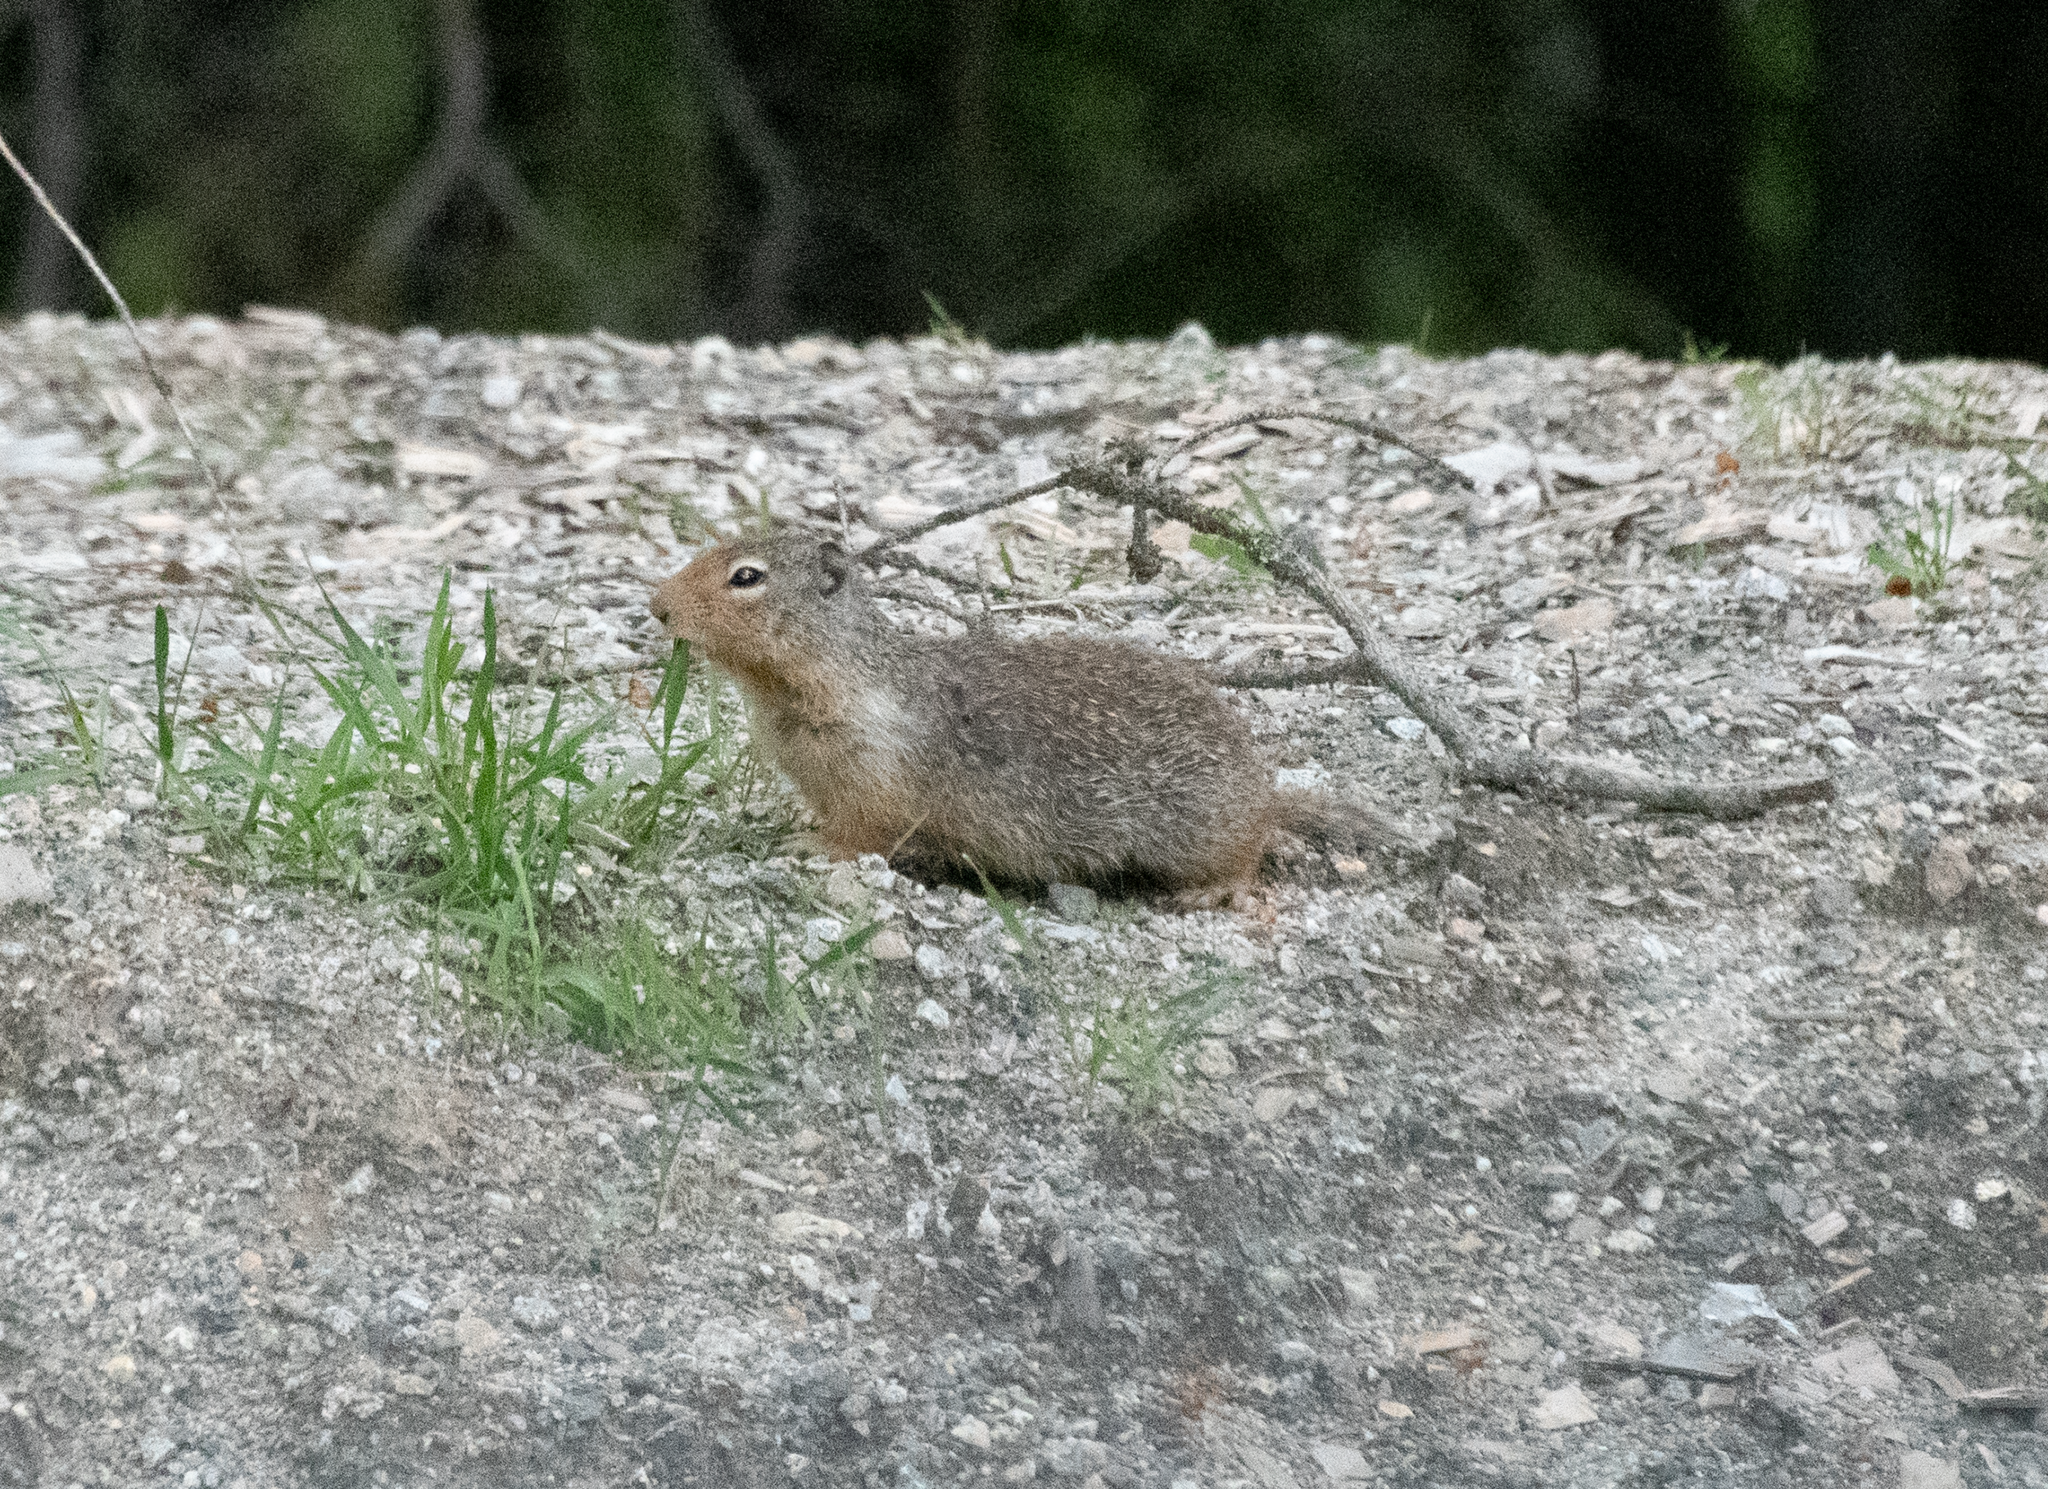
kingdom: Animalia
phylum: Chordata
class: Mammalia
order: Rodentia
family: Sciuridae
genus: Urocitellus
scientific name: Urocitellus columbianus
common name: Columbian ground squirrel
